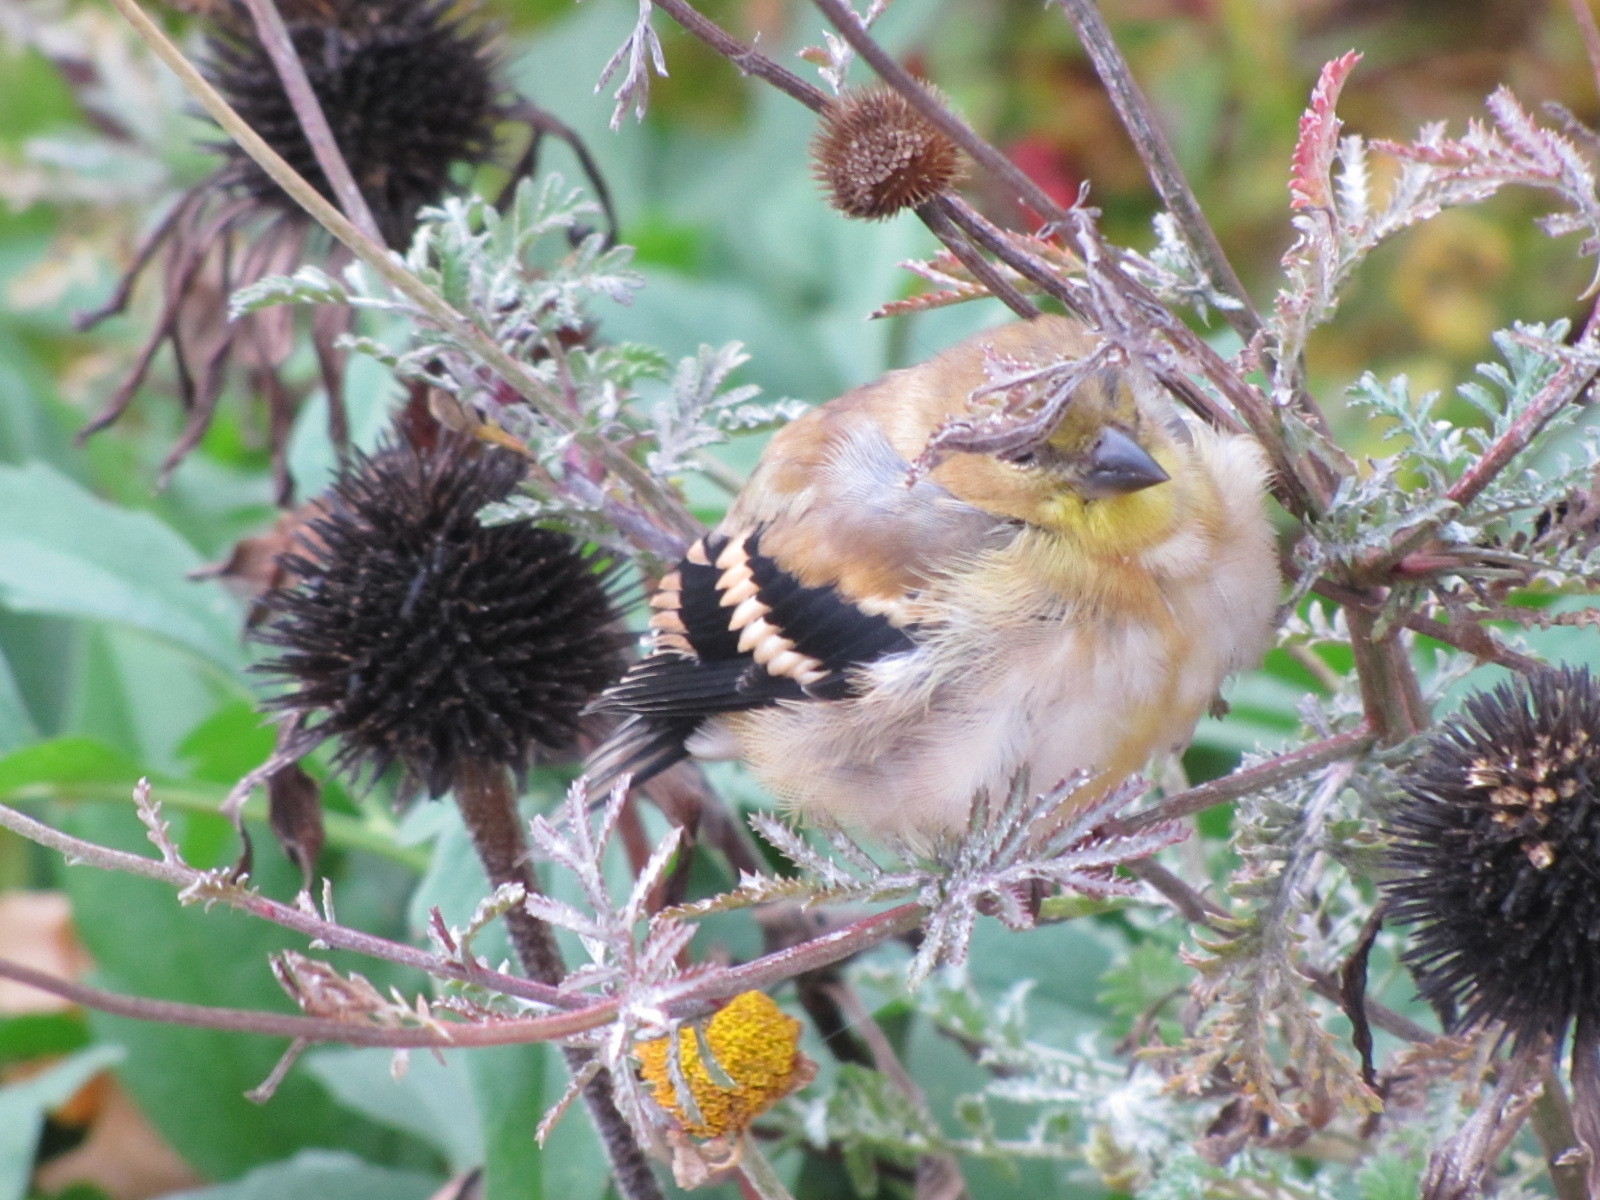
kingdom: Animalia
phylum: Chordata
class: Aves
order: Passeriformes
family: Fringillidae
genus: Spinus
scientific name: Spinus tristis
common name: American goldfinch
